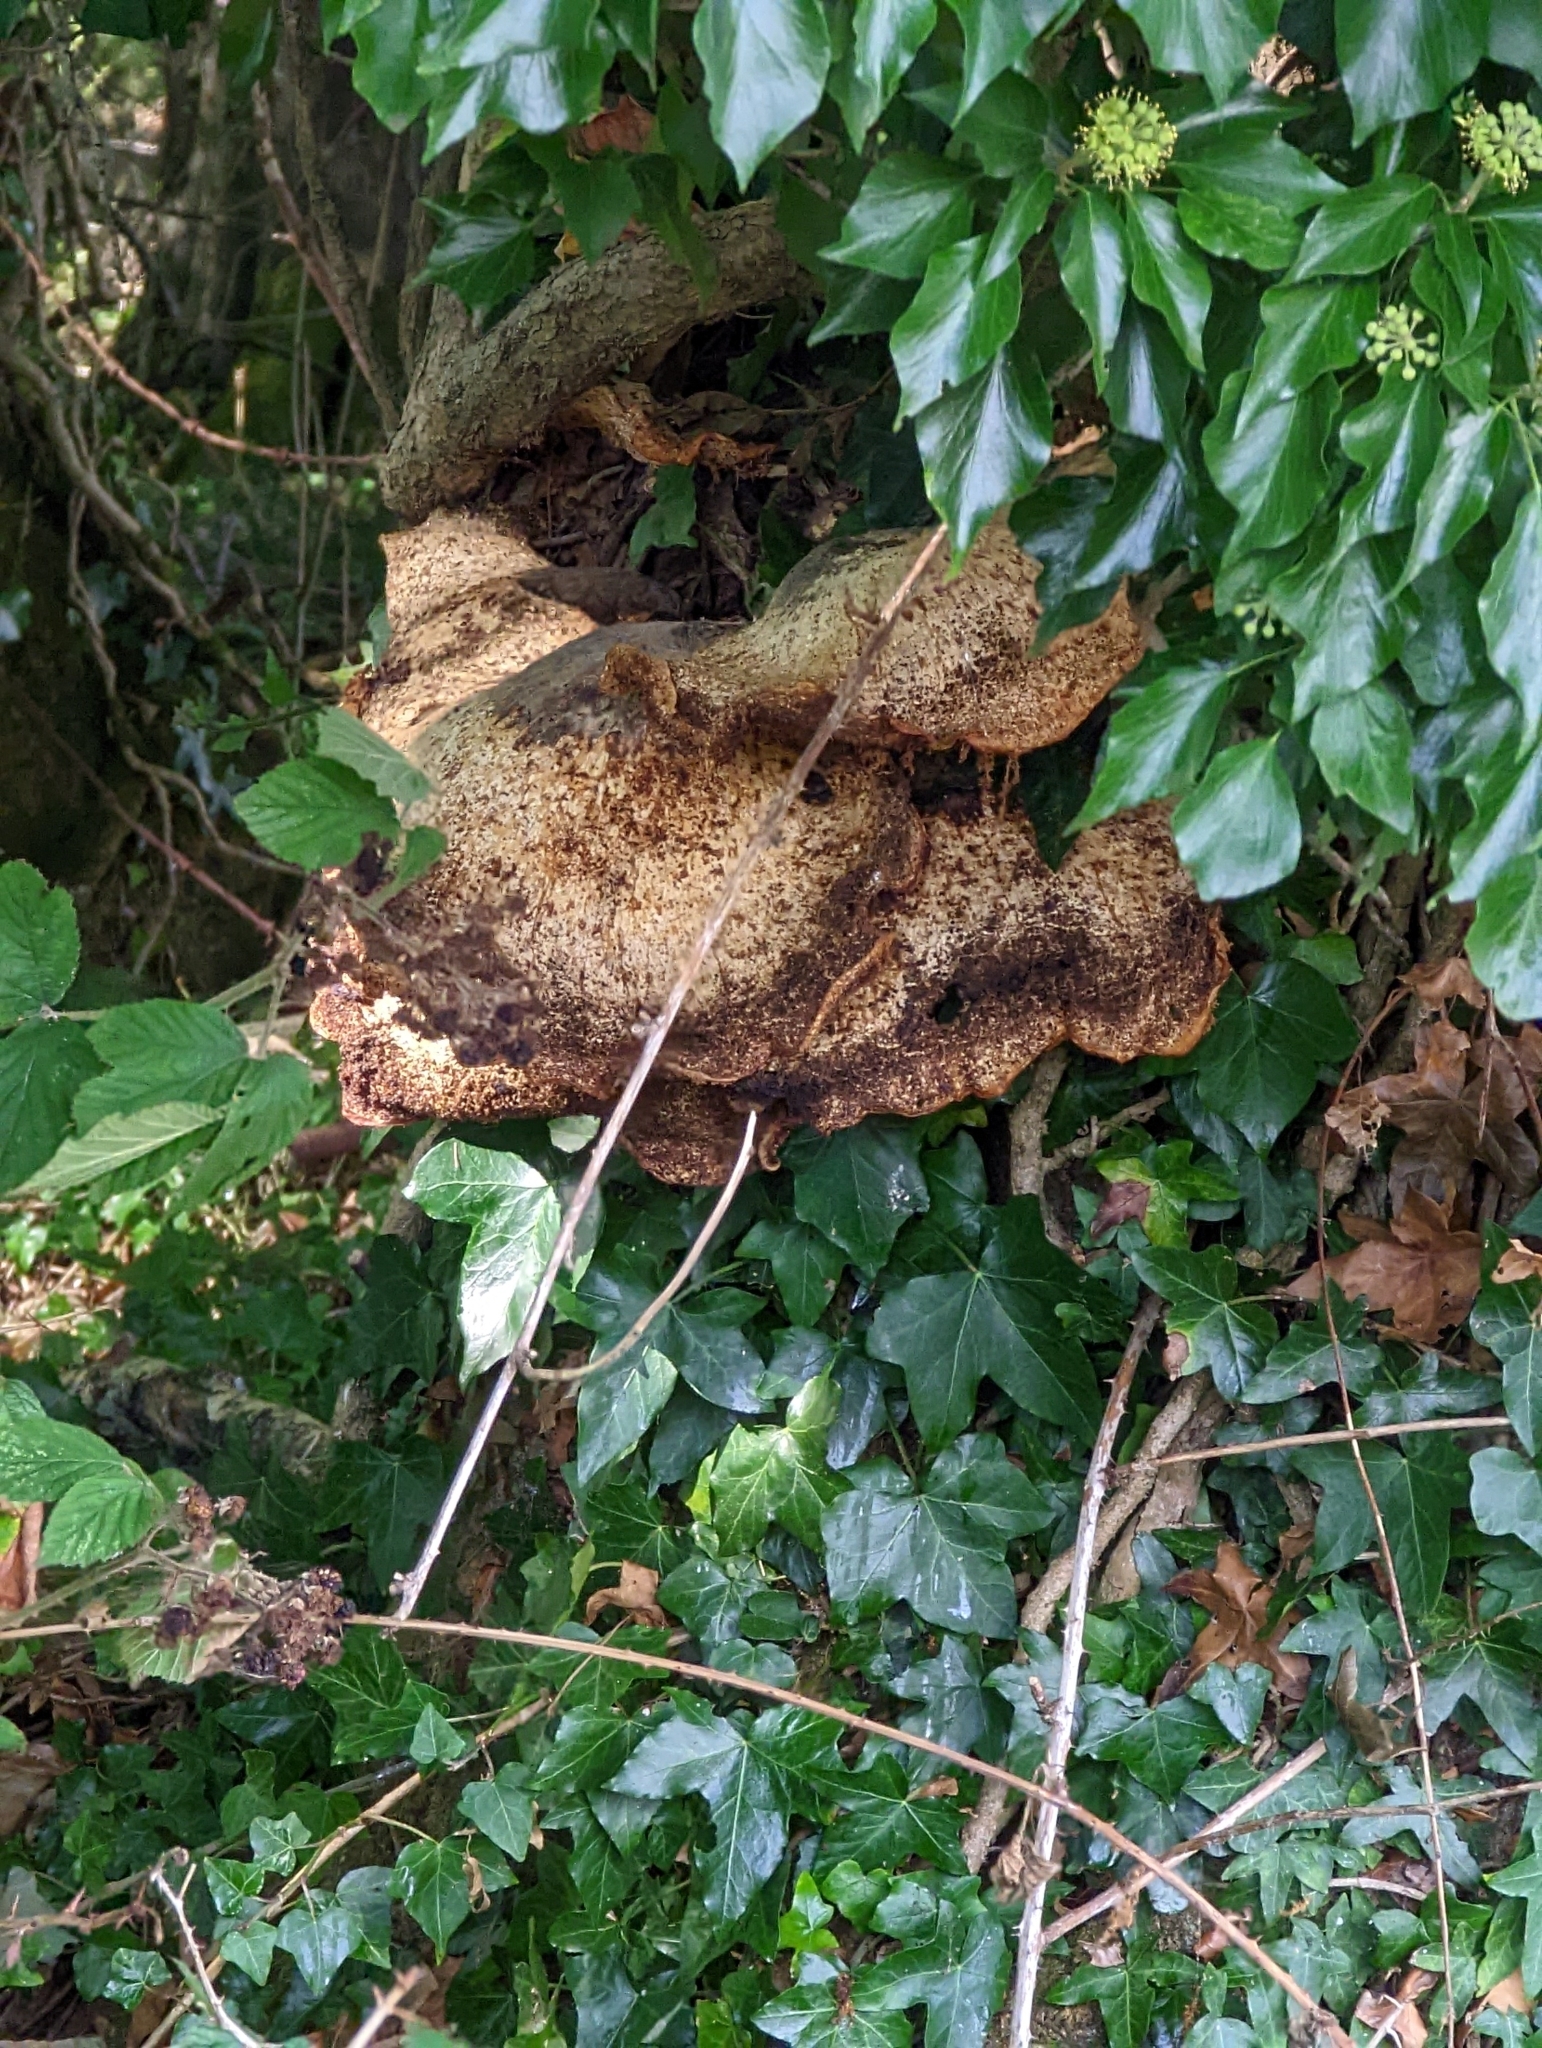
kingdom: Fungi
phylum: Basidiomycota
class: Agaricomycetes
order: Polyporales
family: Polyporaceae
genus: Cerioporus
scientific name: Cerioporus squamosus
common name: Dryad's saddle
